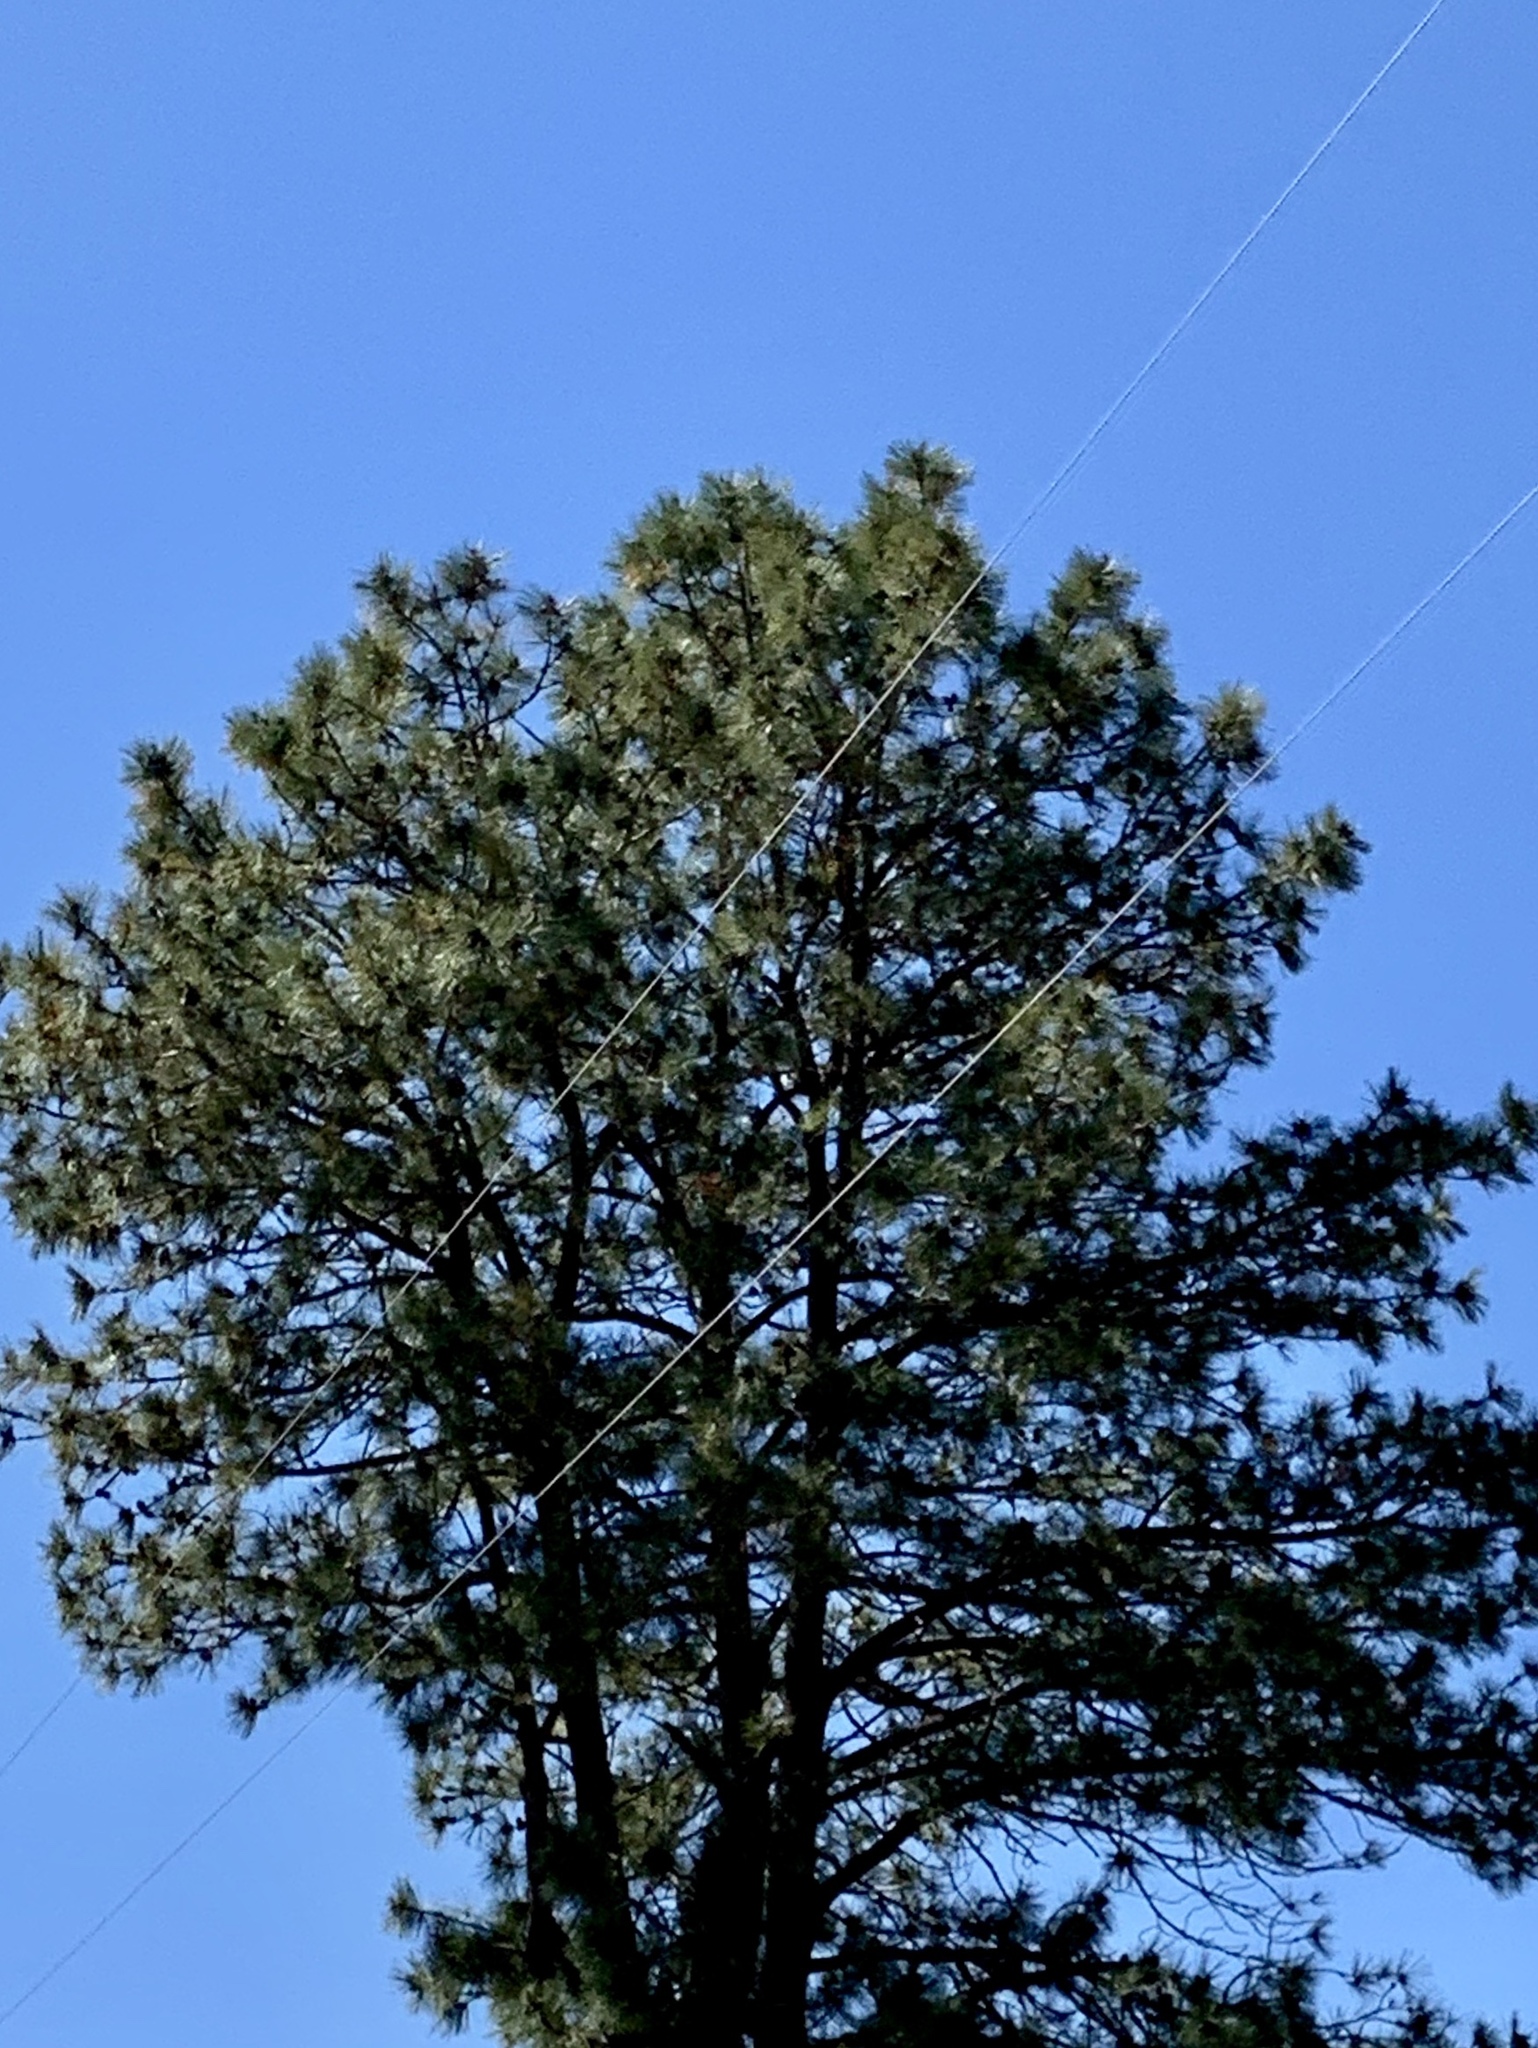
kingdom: Plantae
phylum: Tracheophyta
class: Pinopsida
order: Pinales
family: Pinaceae
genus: Pinus
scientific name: Pinus ponderosa
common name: Western yellow-pine
